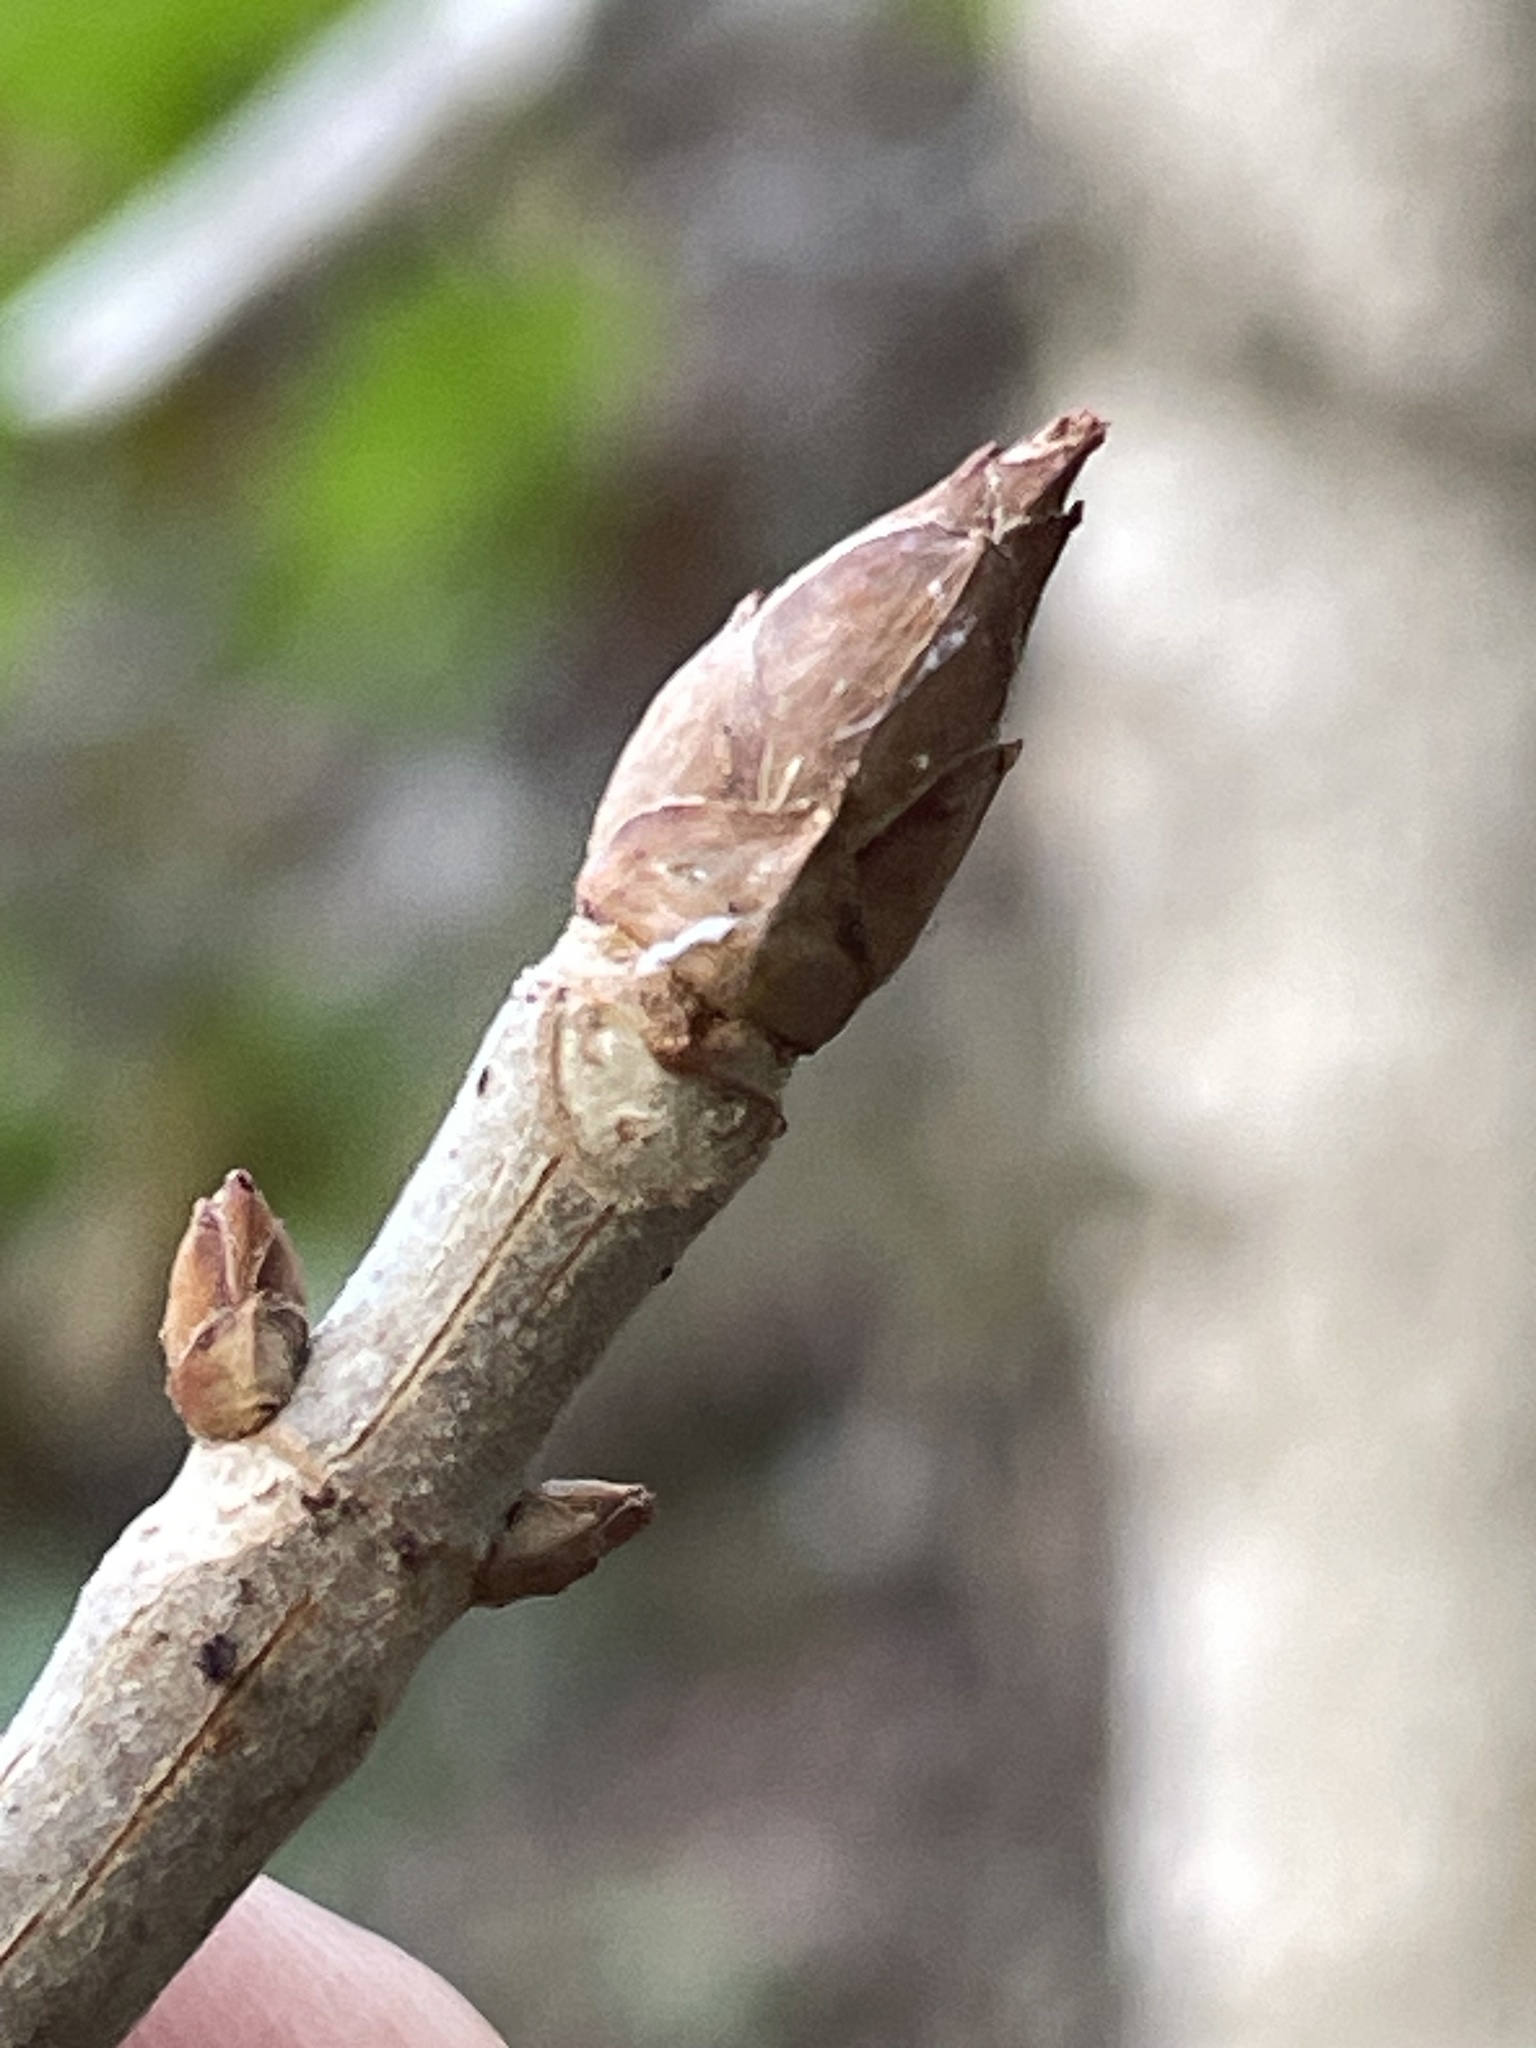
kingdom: Plantae
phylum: Tracheophyta
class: Magnoliopsida
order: Sapindales
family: Sapindaceae
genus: Aesculus
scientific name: Aesculus glabra
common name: Ohio buckeye
